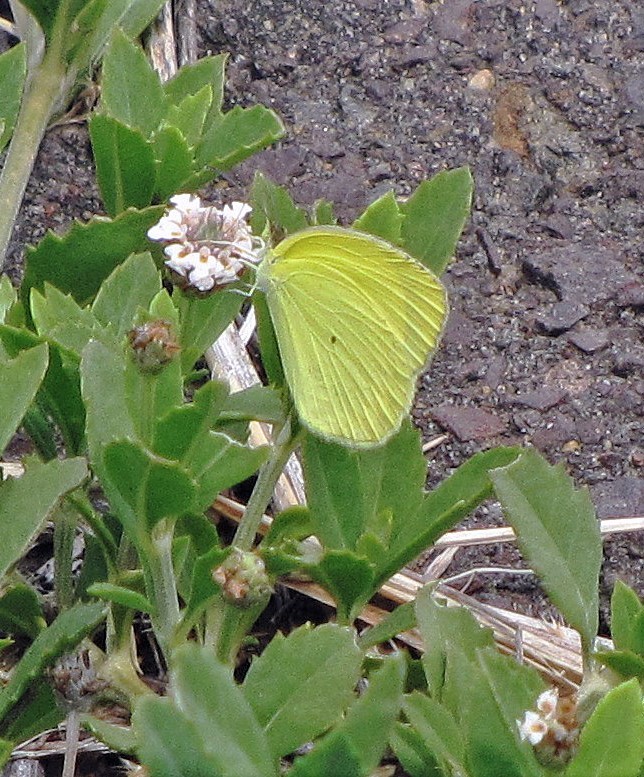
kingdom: Animalia
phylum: Arthropoda
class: Insecta
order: Lepidoptera
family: Pieridae
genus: Pyrisitia
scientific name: Pyrisitia nise
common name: Mimosa yellow
